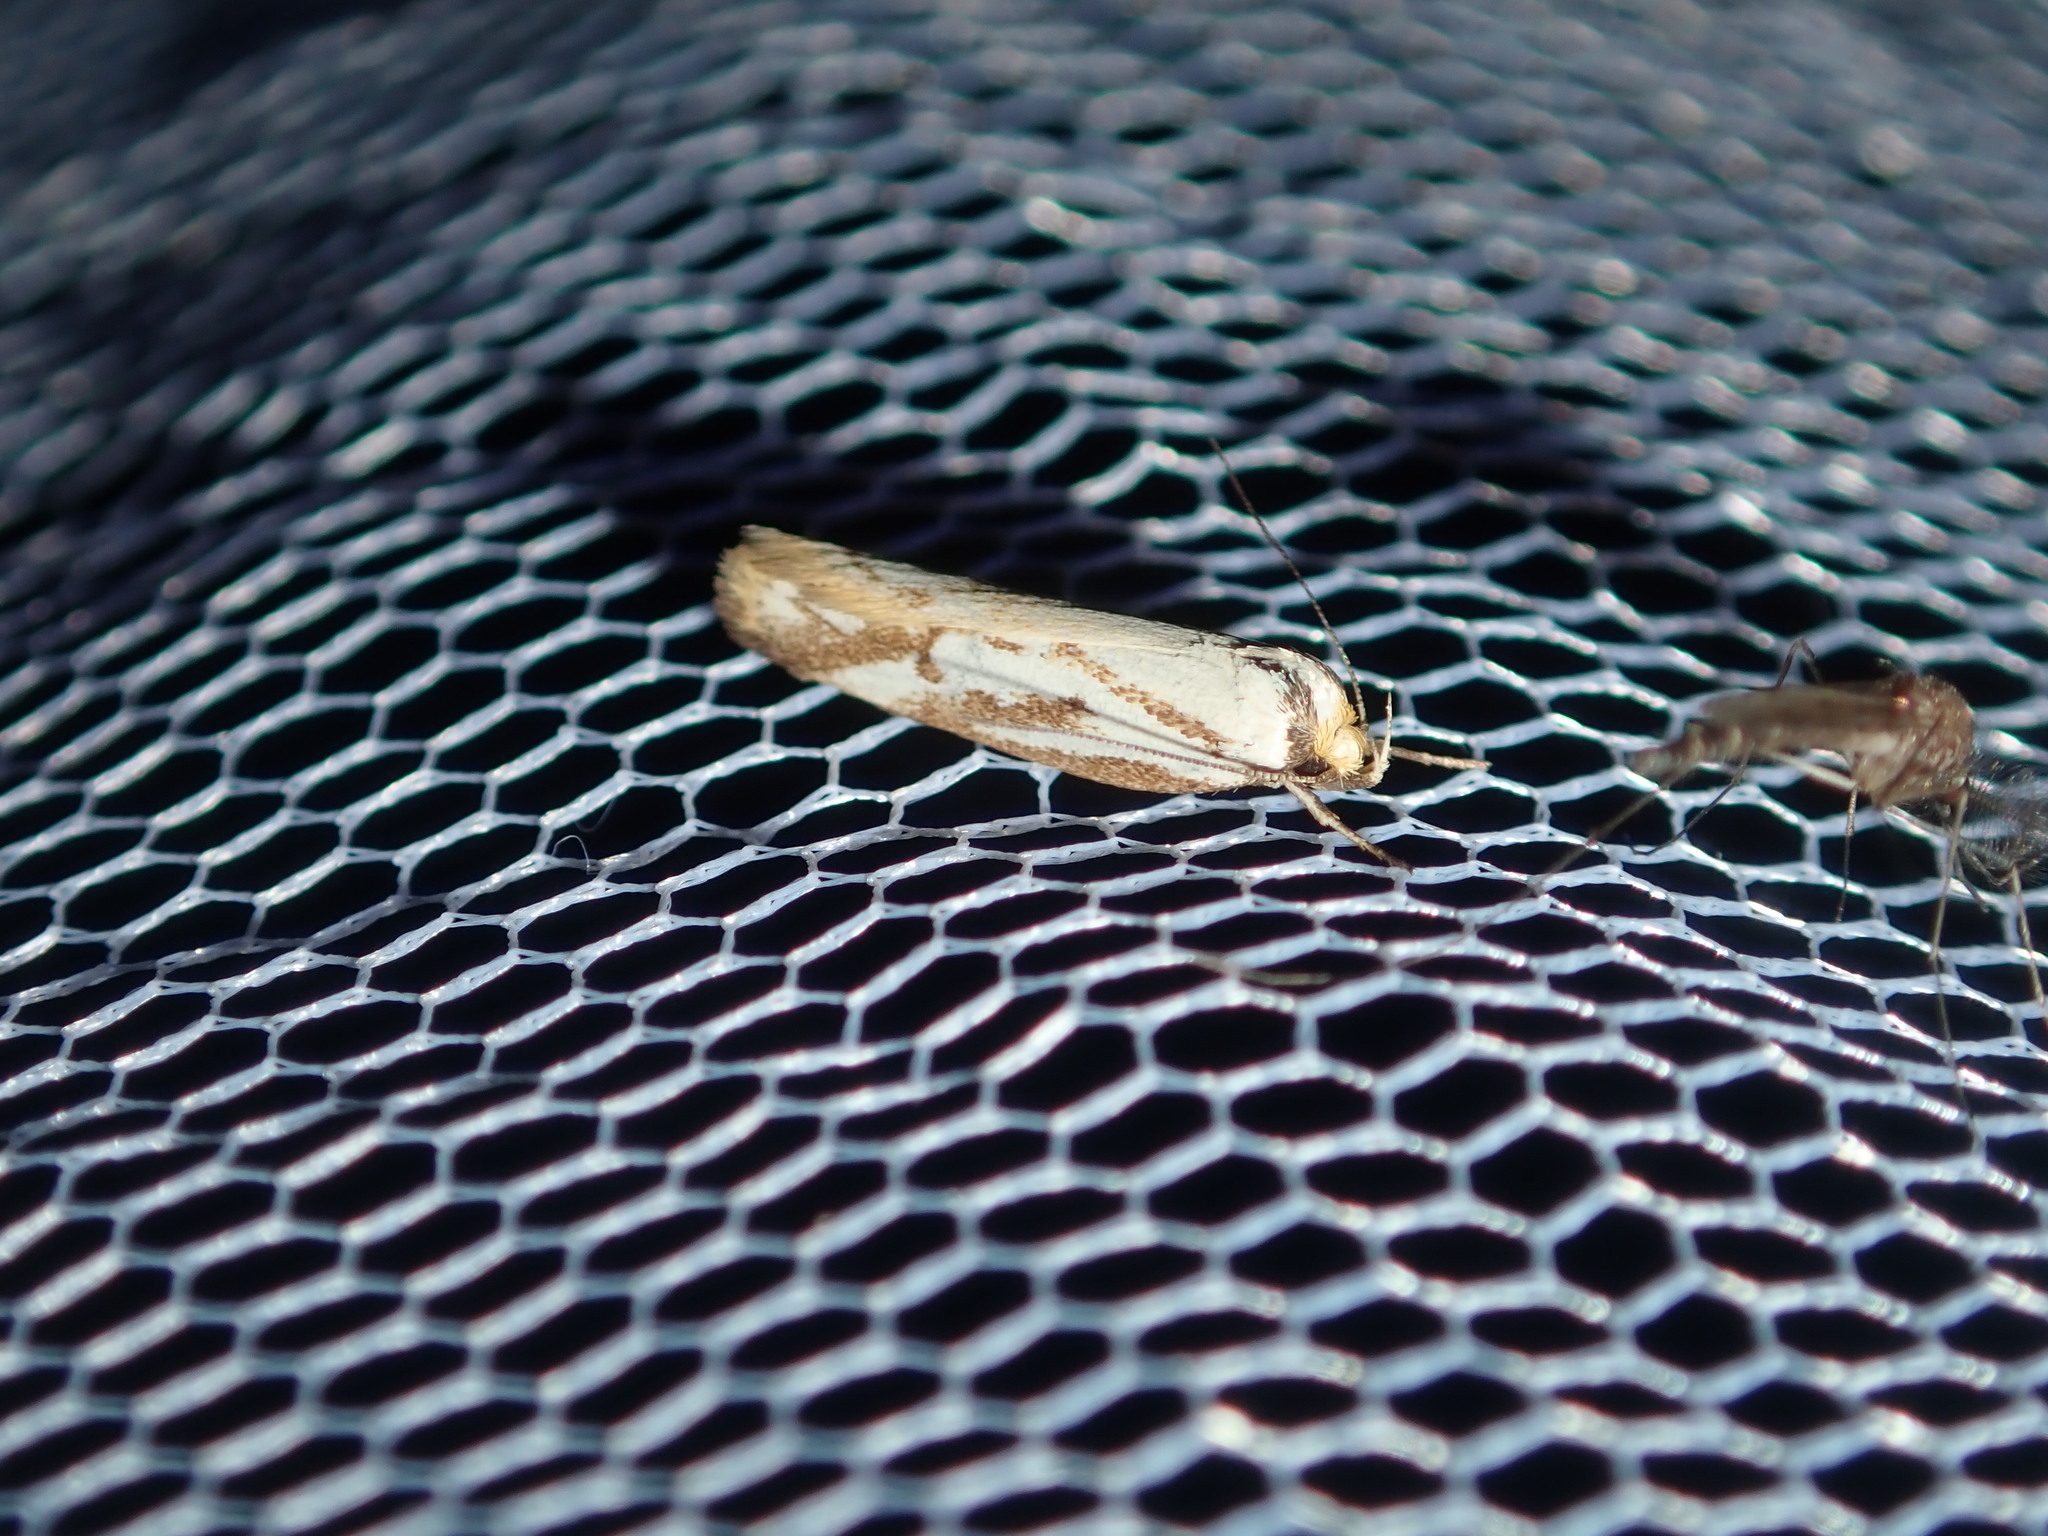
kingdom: Animalia
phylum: Arthropoda
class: Insecta
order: Lepidoptera
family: Oecophoridae
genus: Philobota
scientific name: Philobota cretacea
